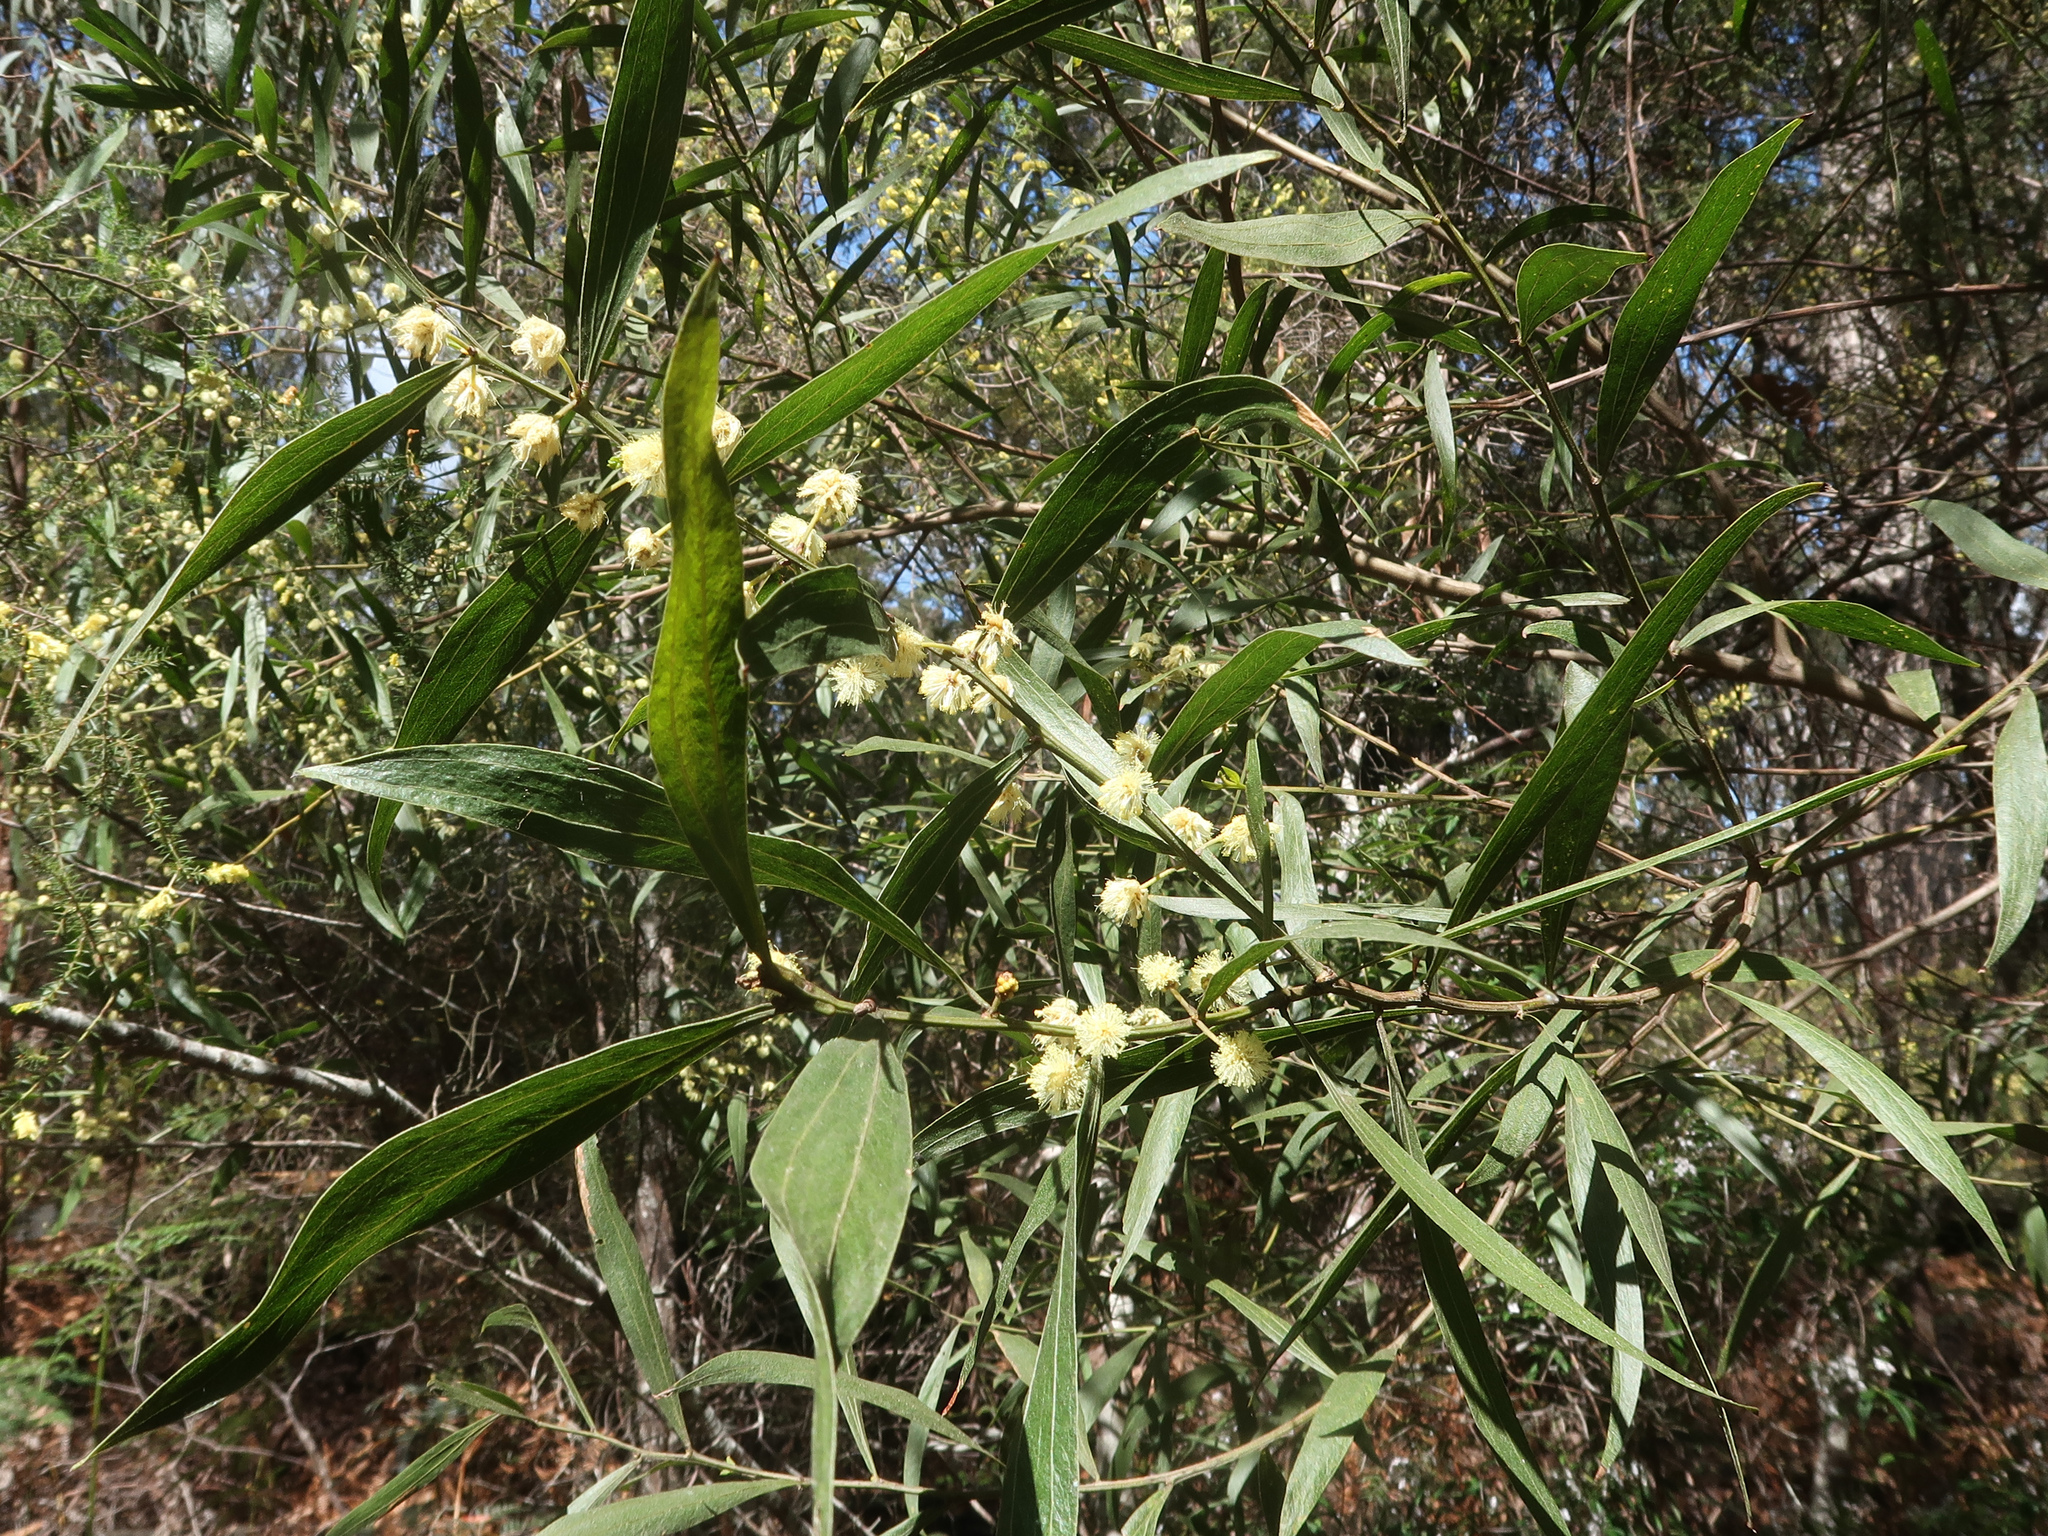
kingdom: Plantae
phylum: Tracheophyta
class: Magnoliopsida
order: Fabales
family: Fabaceae
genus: Acacia
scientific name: Acacia leprosa
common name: Cinnamon wattle
